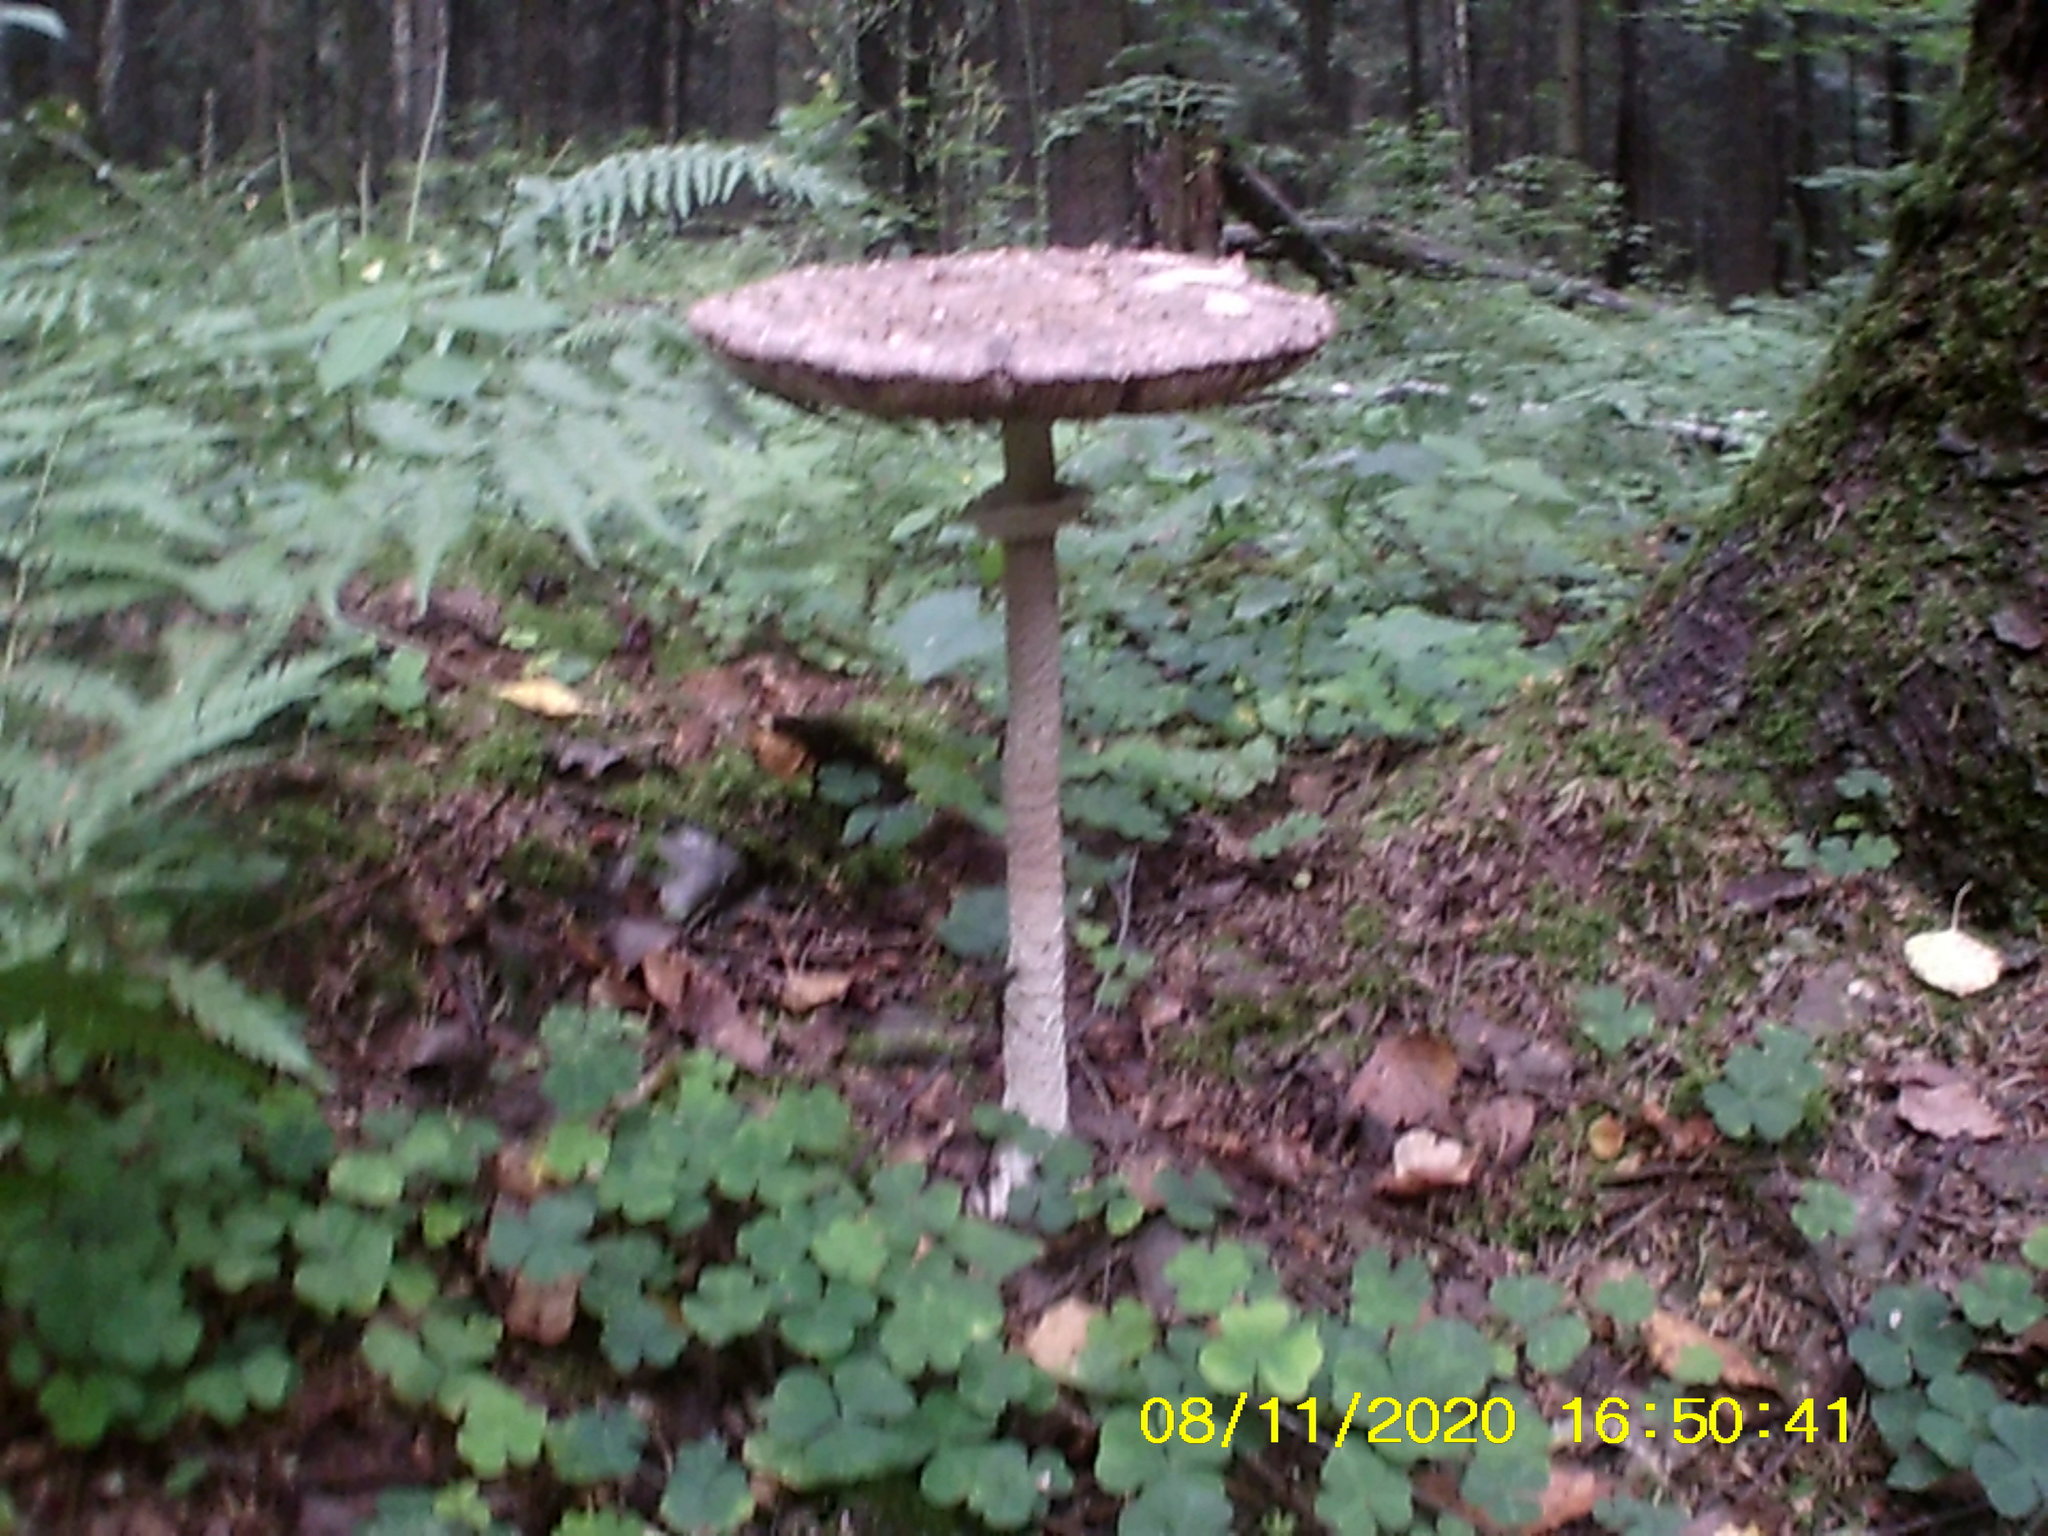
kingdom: Fungi
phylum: Basidiomycota
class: Agaricomycetes
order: Agaricales
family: Agaricaceae
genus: Macrolepiota
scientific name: Macrolepiota procera
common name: Parasol
